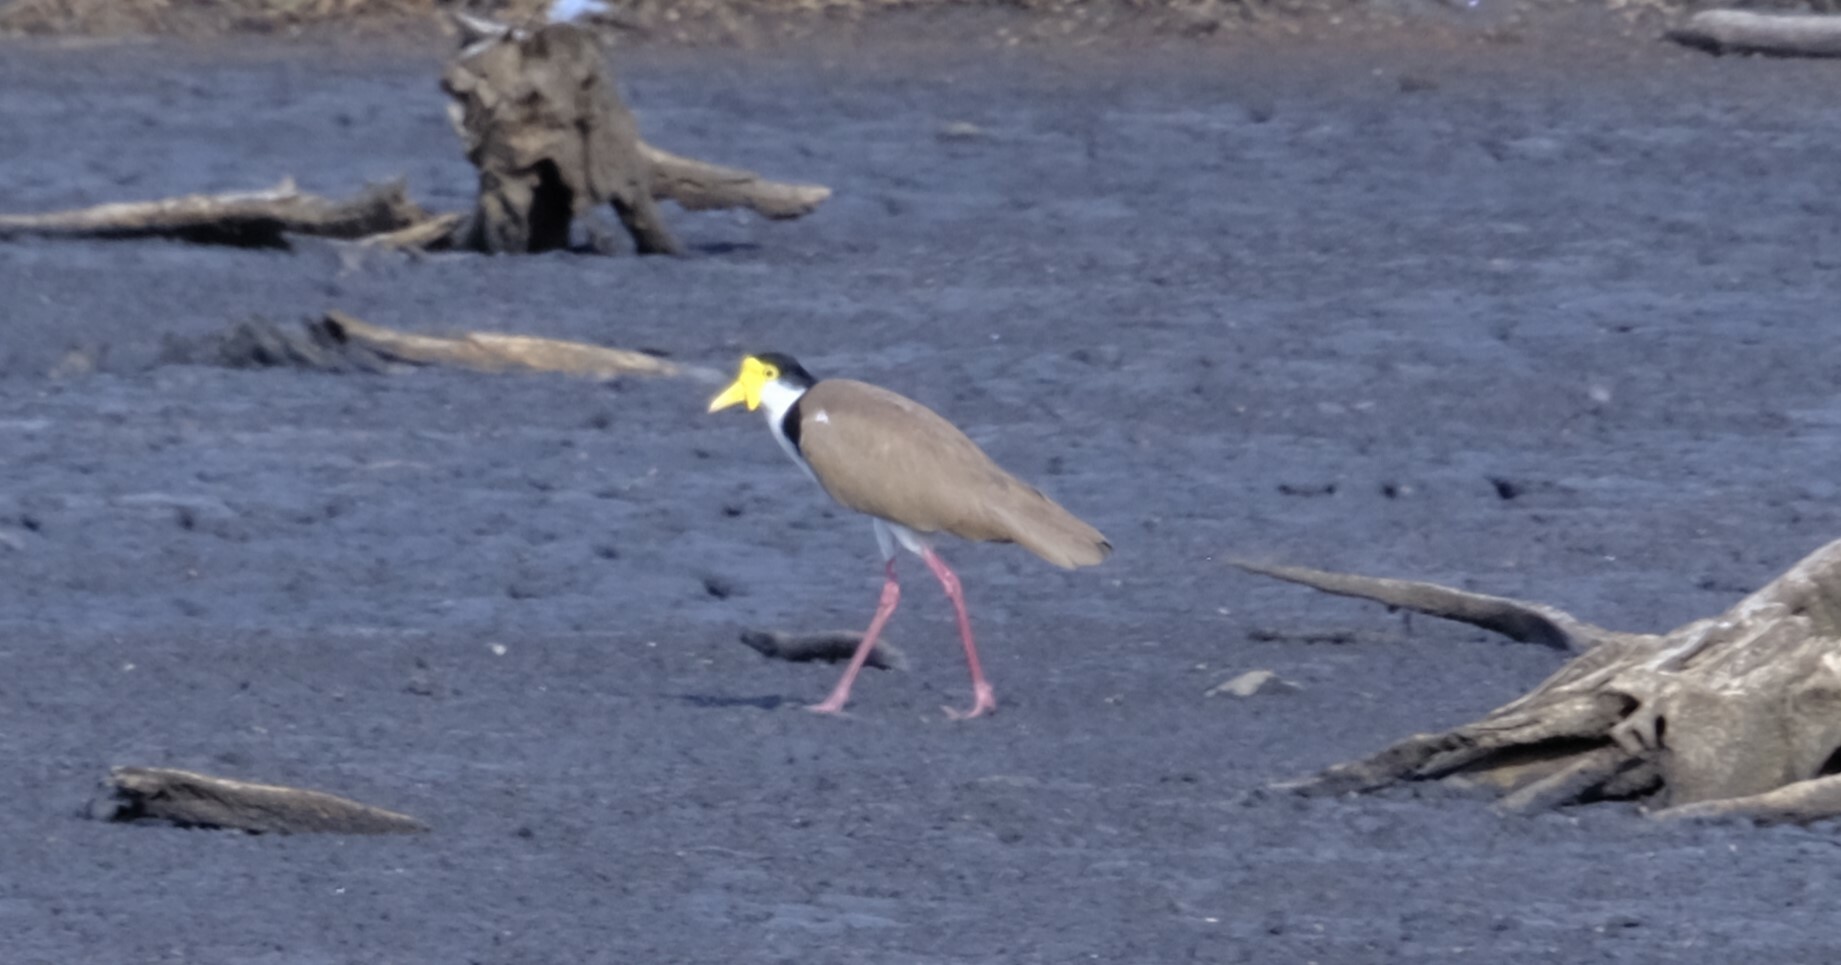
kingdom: Animalia
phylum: Chordata
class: Aves
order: Charadriiformes
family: Charadriidae
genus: Vanellus
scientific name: Vanellus miles
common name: Masked lapwing
